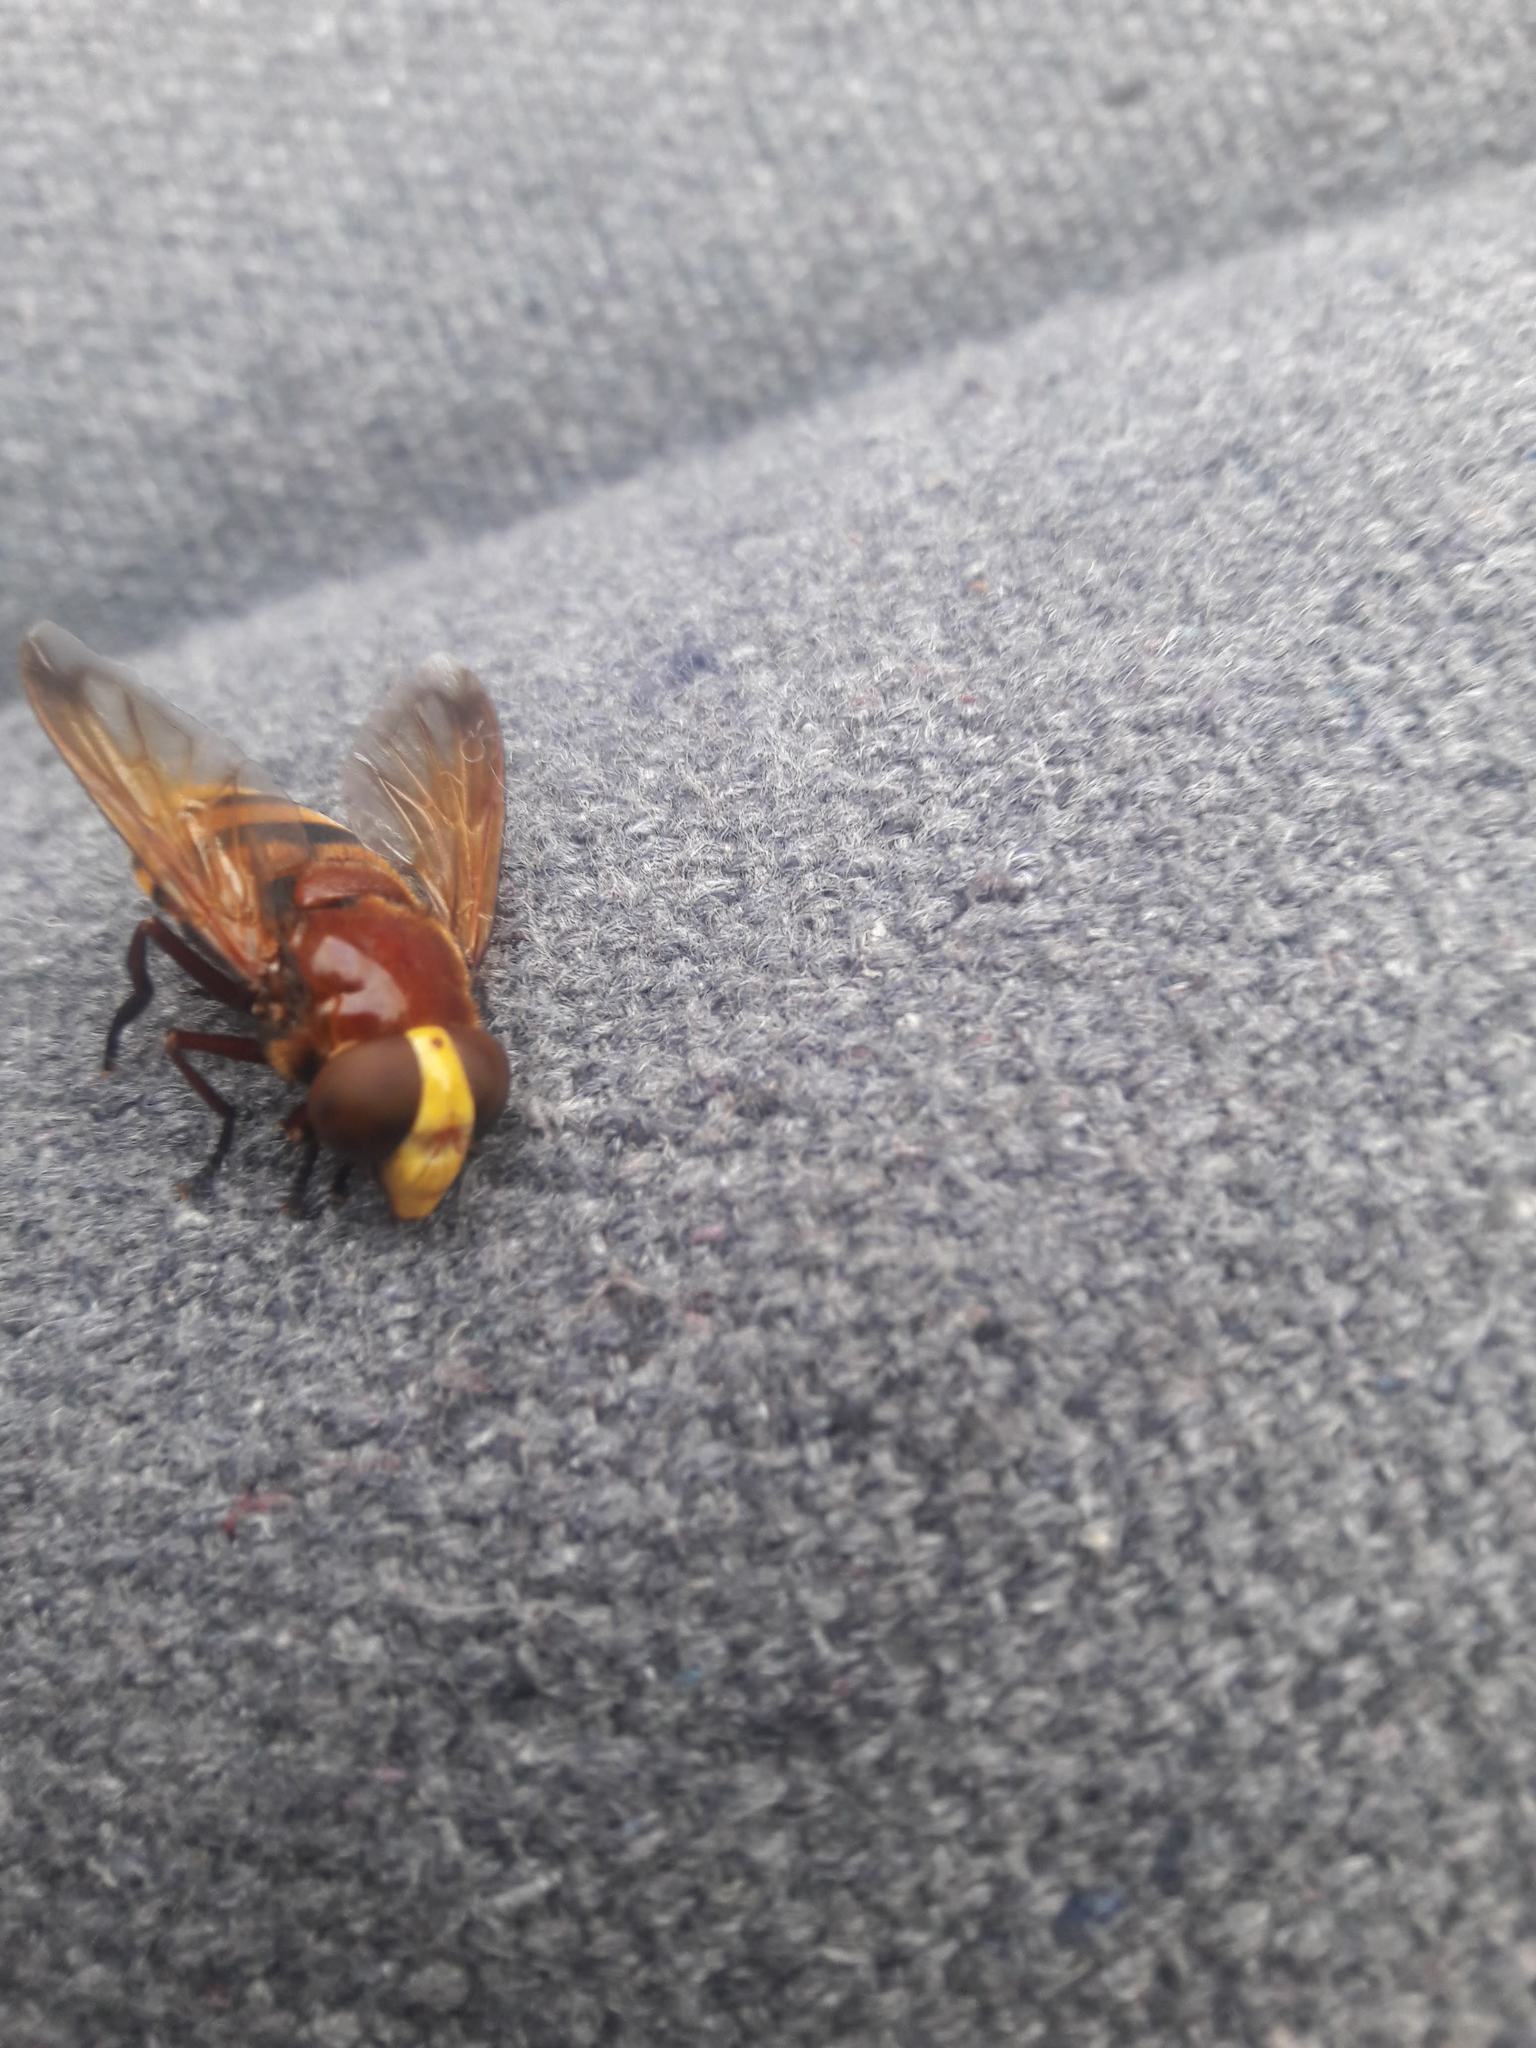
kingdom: Animalia
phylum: Arthropoda
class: Insecta
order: Diptera
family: Syrphidae
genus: Volucella
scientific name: Volucella zonaria
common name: Hornet hoverfly
